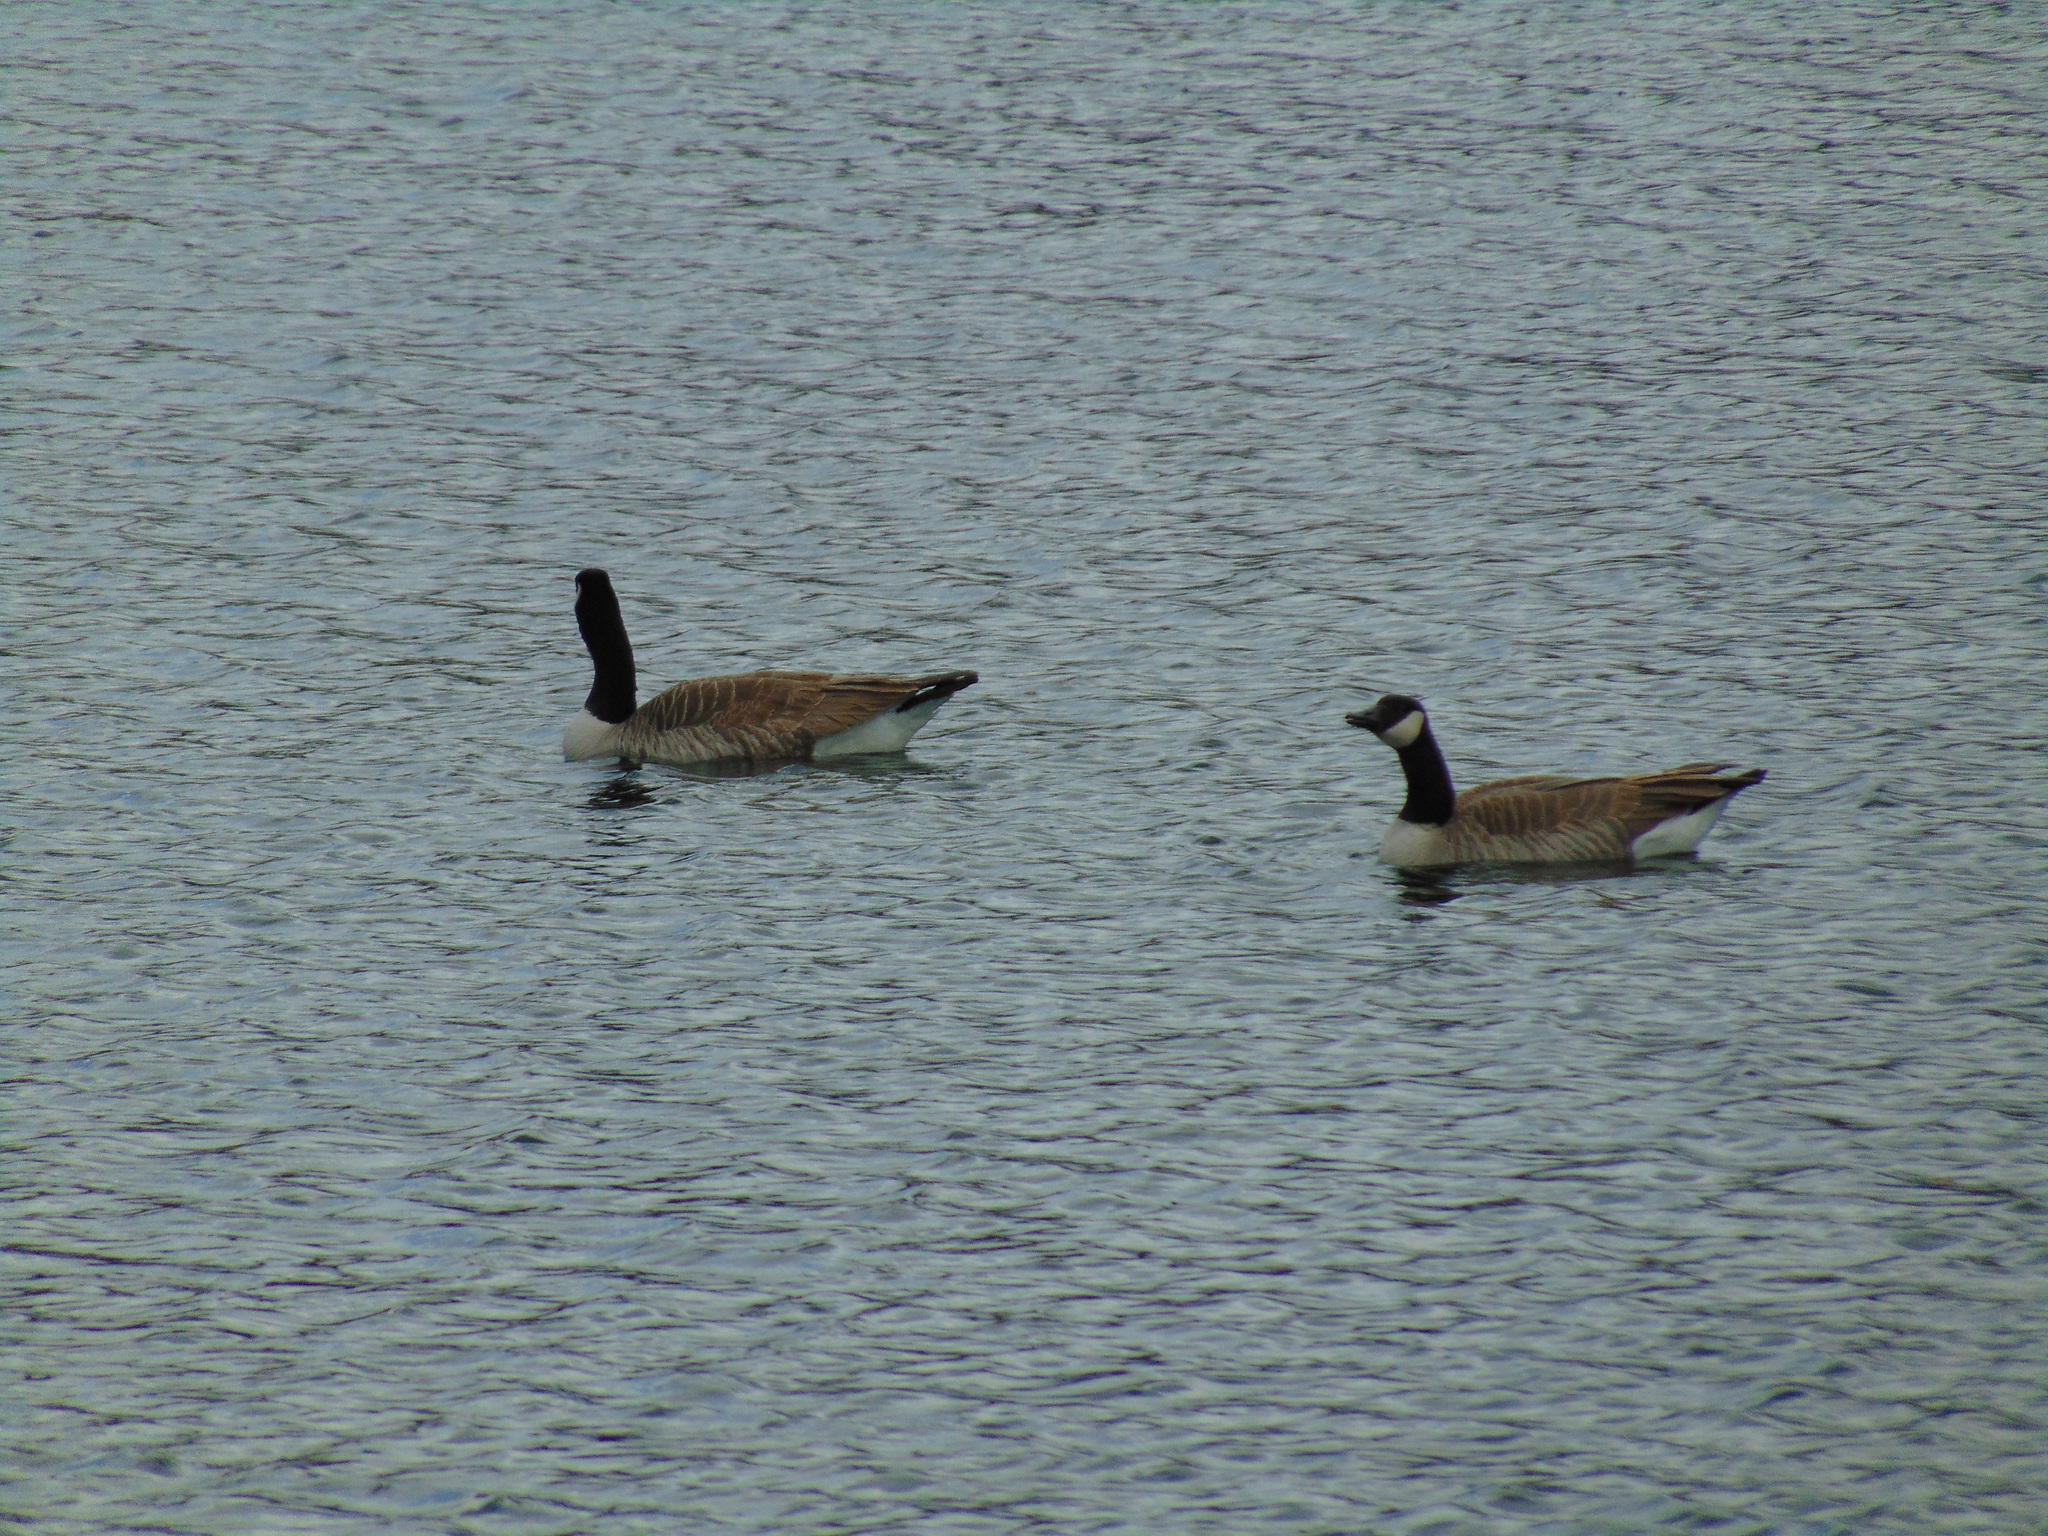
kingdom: Animalia
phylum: Chordata
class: Aves
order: Anseriformes
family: Anatidae
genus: Branta
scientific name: Branta canadensis
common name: Canada goose
